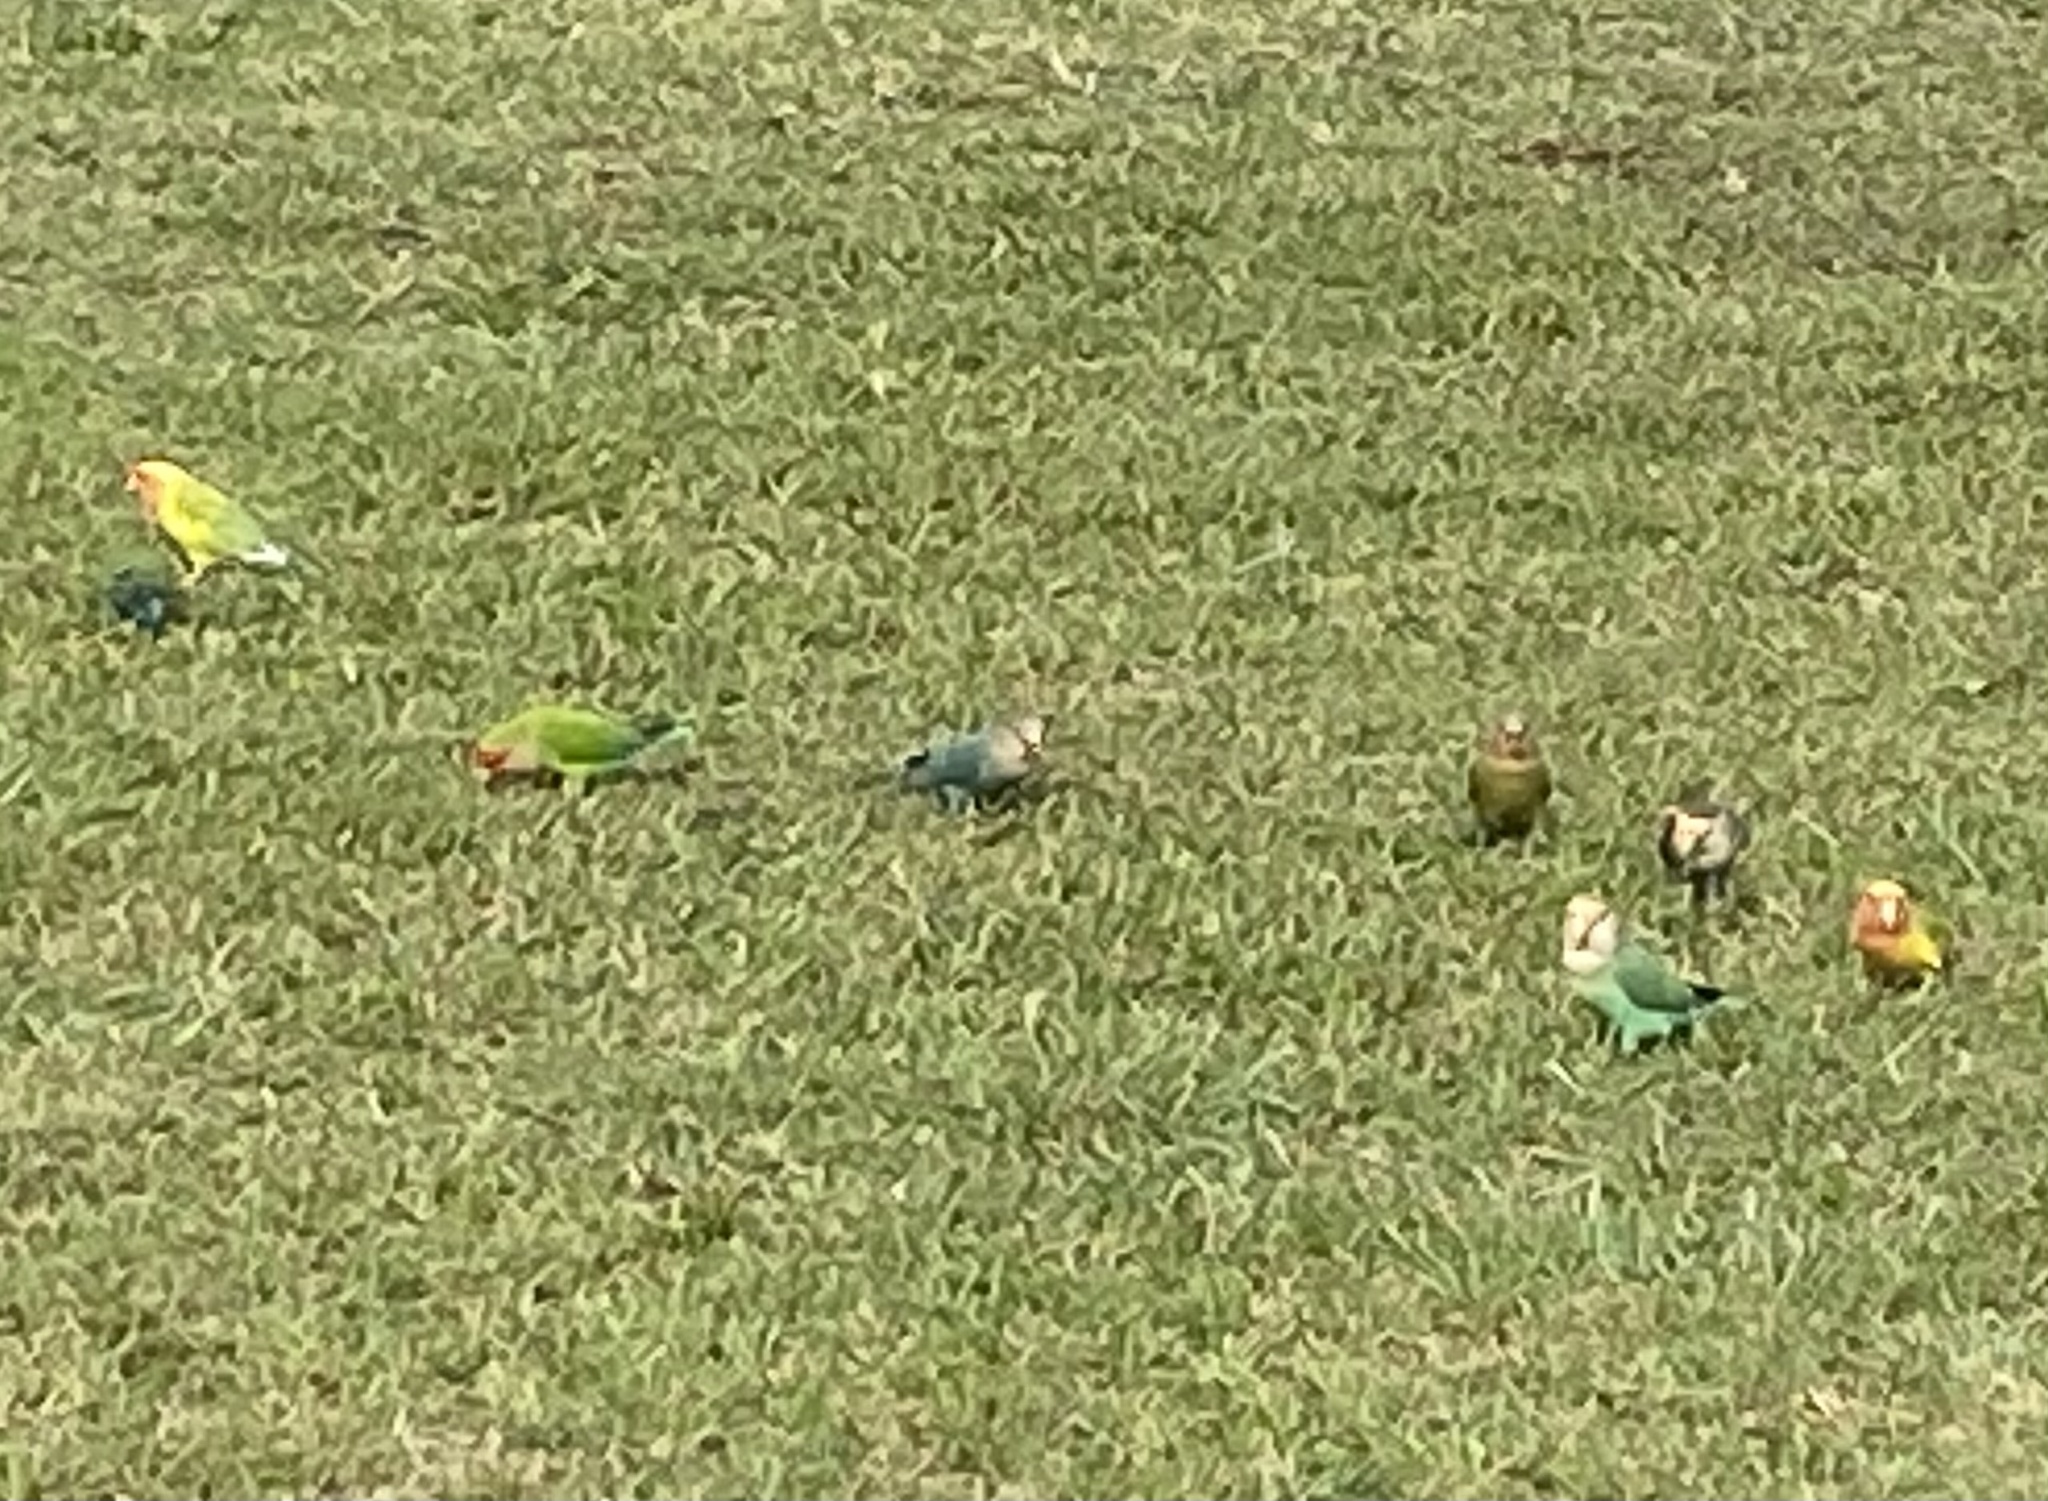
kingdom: Animalia
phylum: Chordata
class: Aves
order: Psittaciformes
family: Psittacidae
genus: Agapornis
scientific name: Agapornis roseicollis
